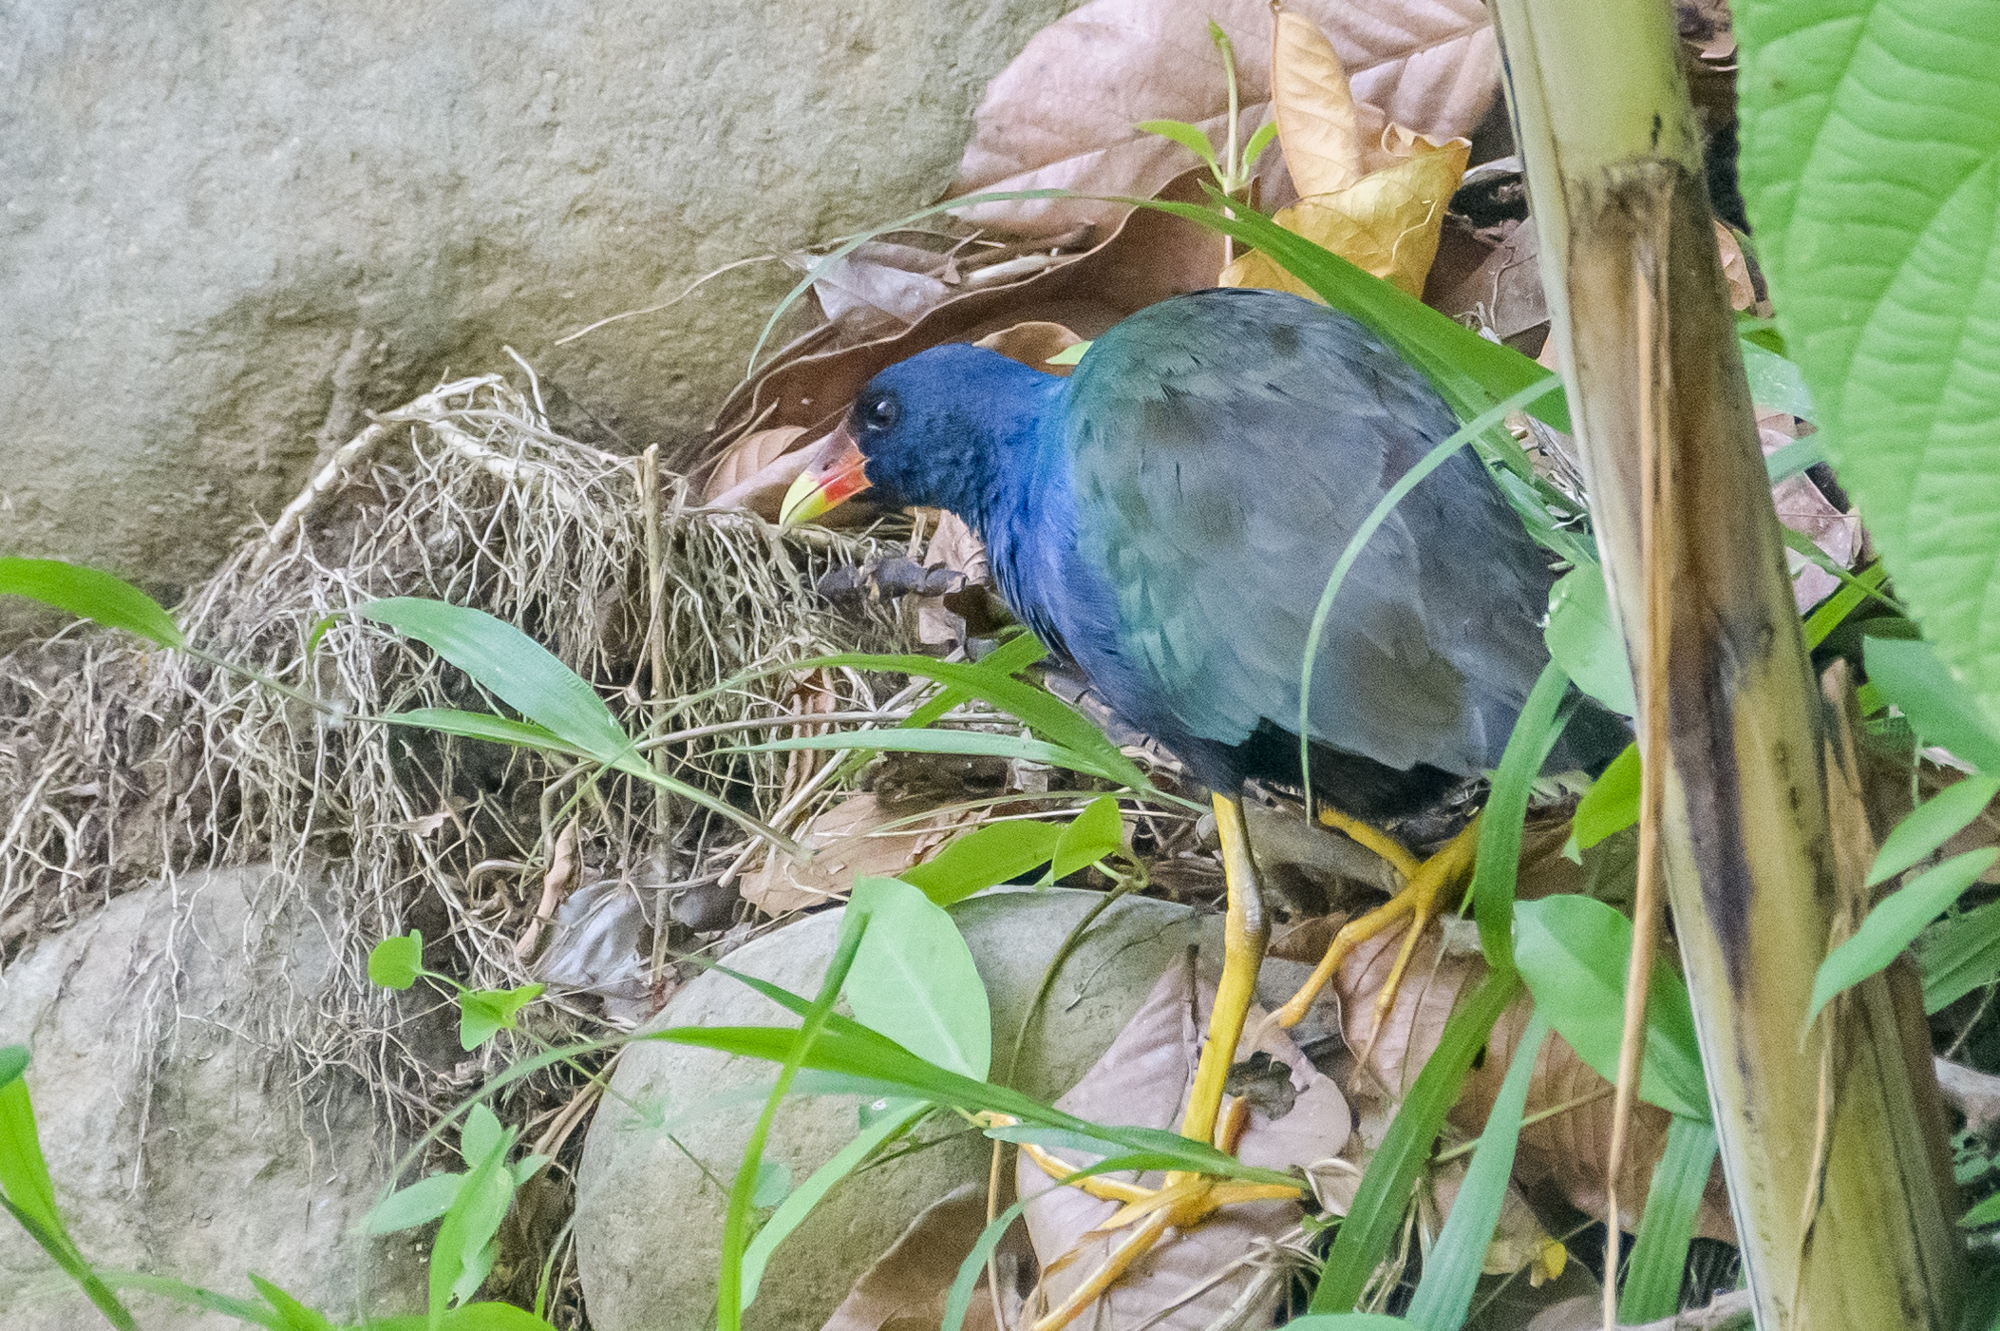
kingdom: Animalia
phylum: Chordata
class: Aves
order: Gruiformes
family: Rallidae
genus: Porphyrio
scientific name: Porphyrio martinica
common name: Purple gallinule
